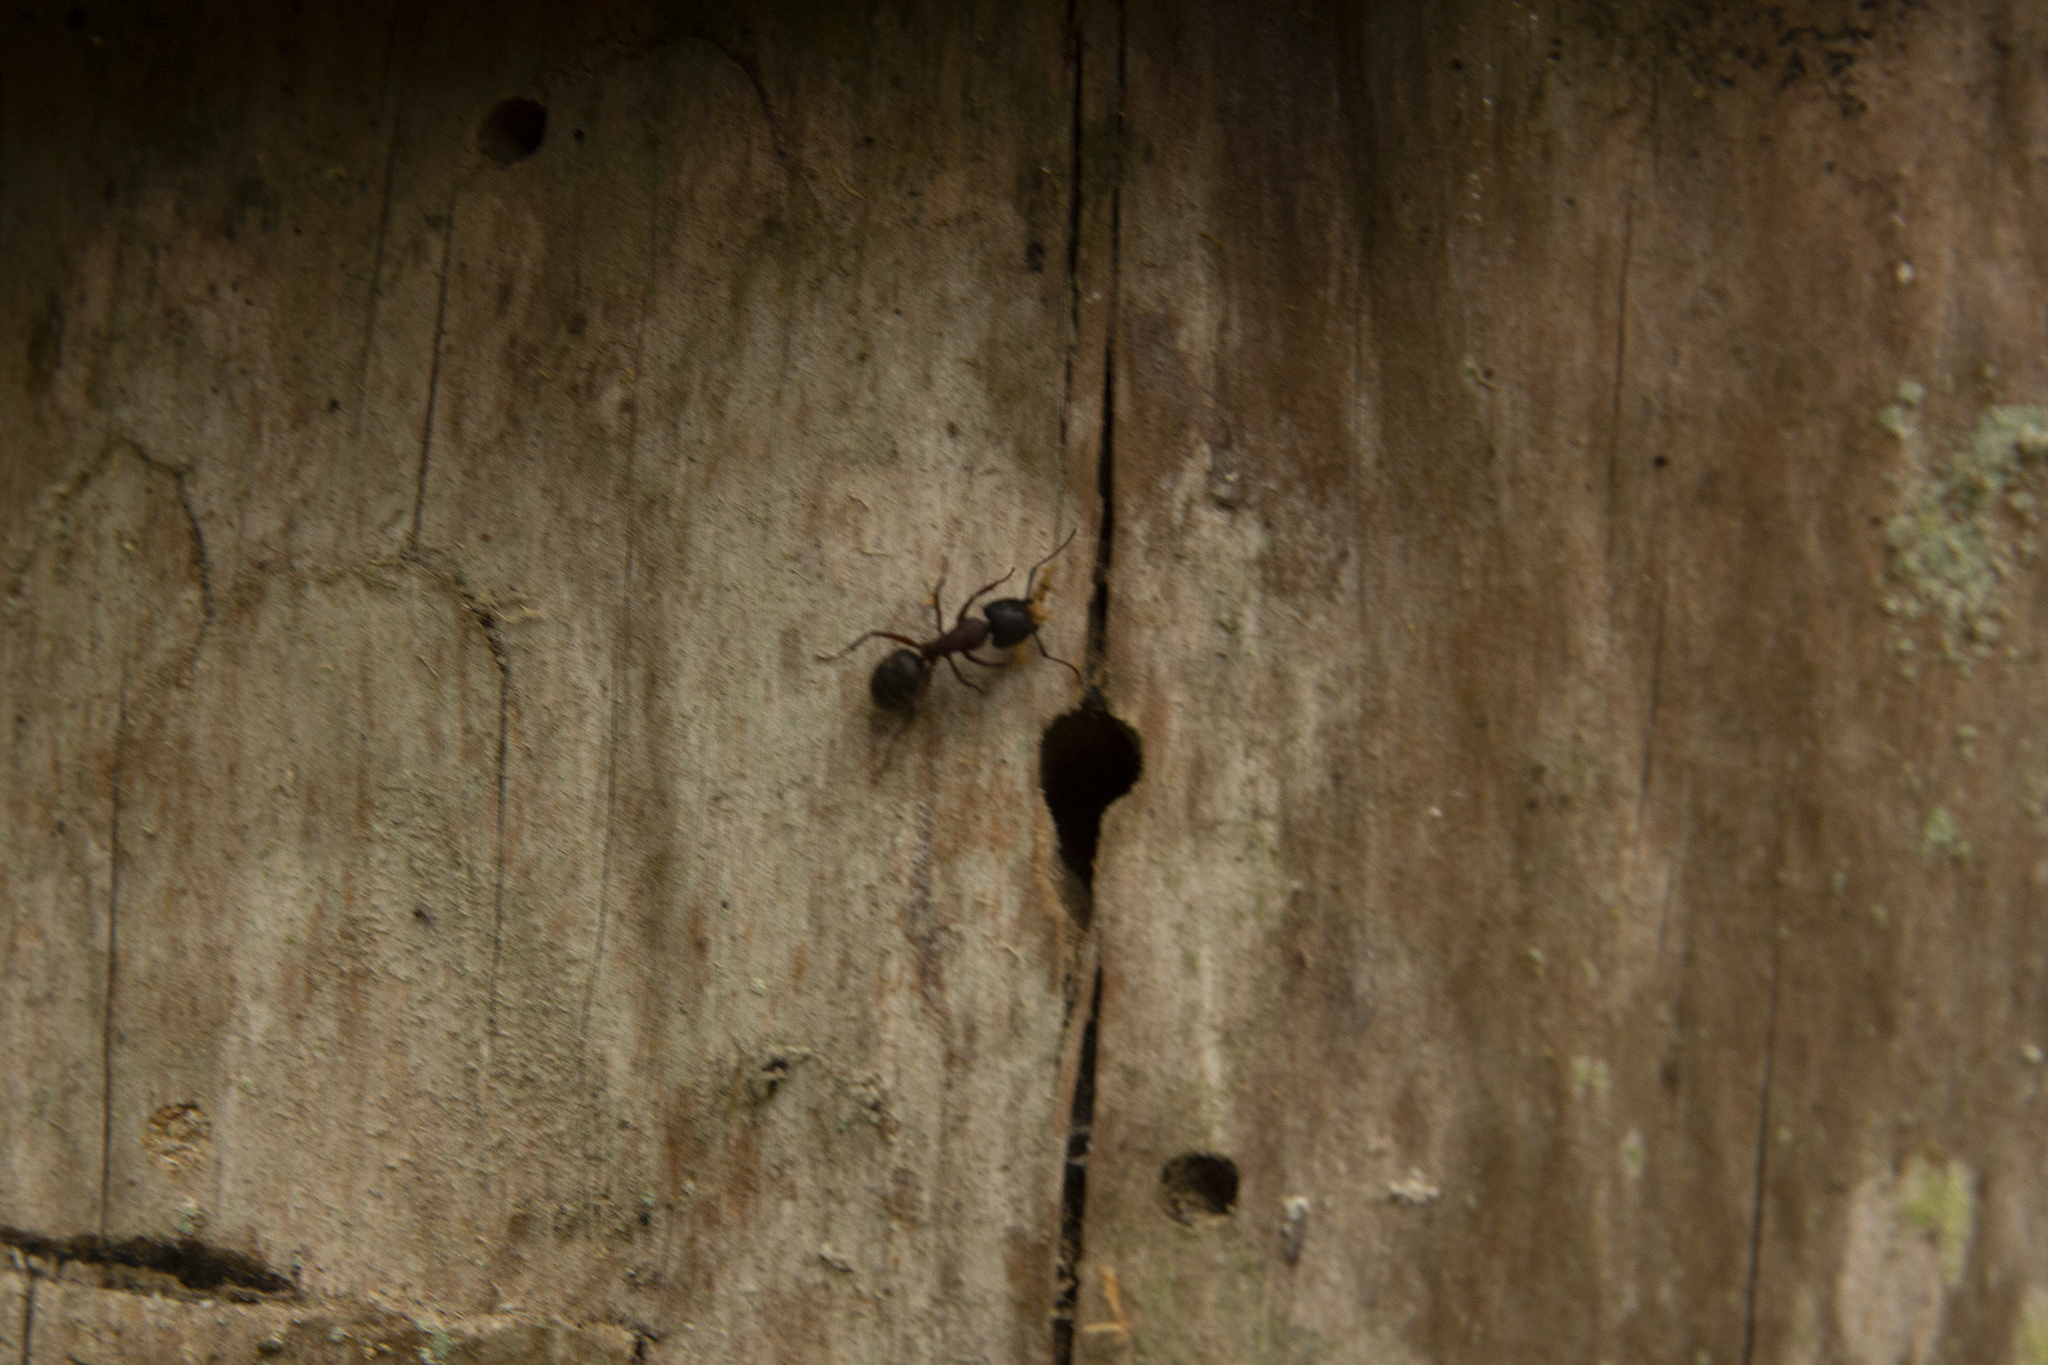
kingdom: Animalia
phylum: Arthropoda
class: Insecta
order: Hymenoptera
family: Formicidae
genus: Camponotus
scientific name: Camponotus herculeanus
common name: Hercules ant
